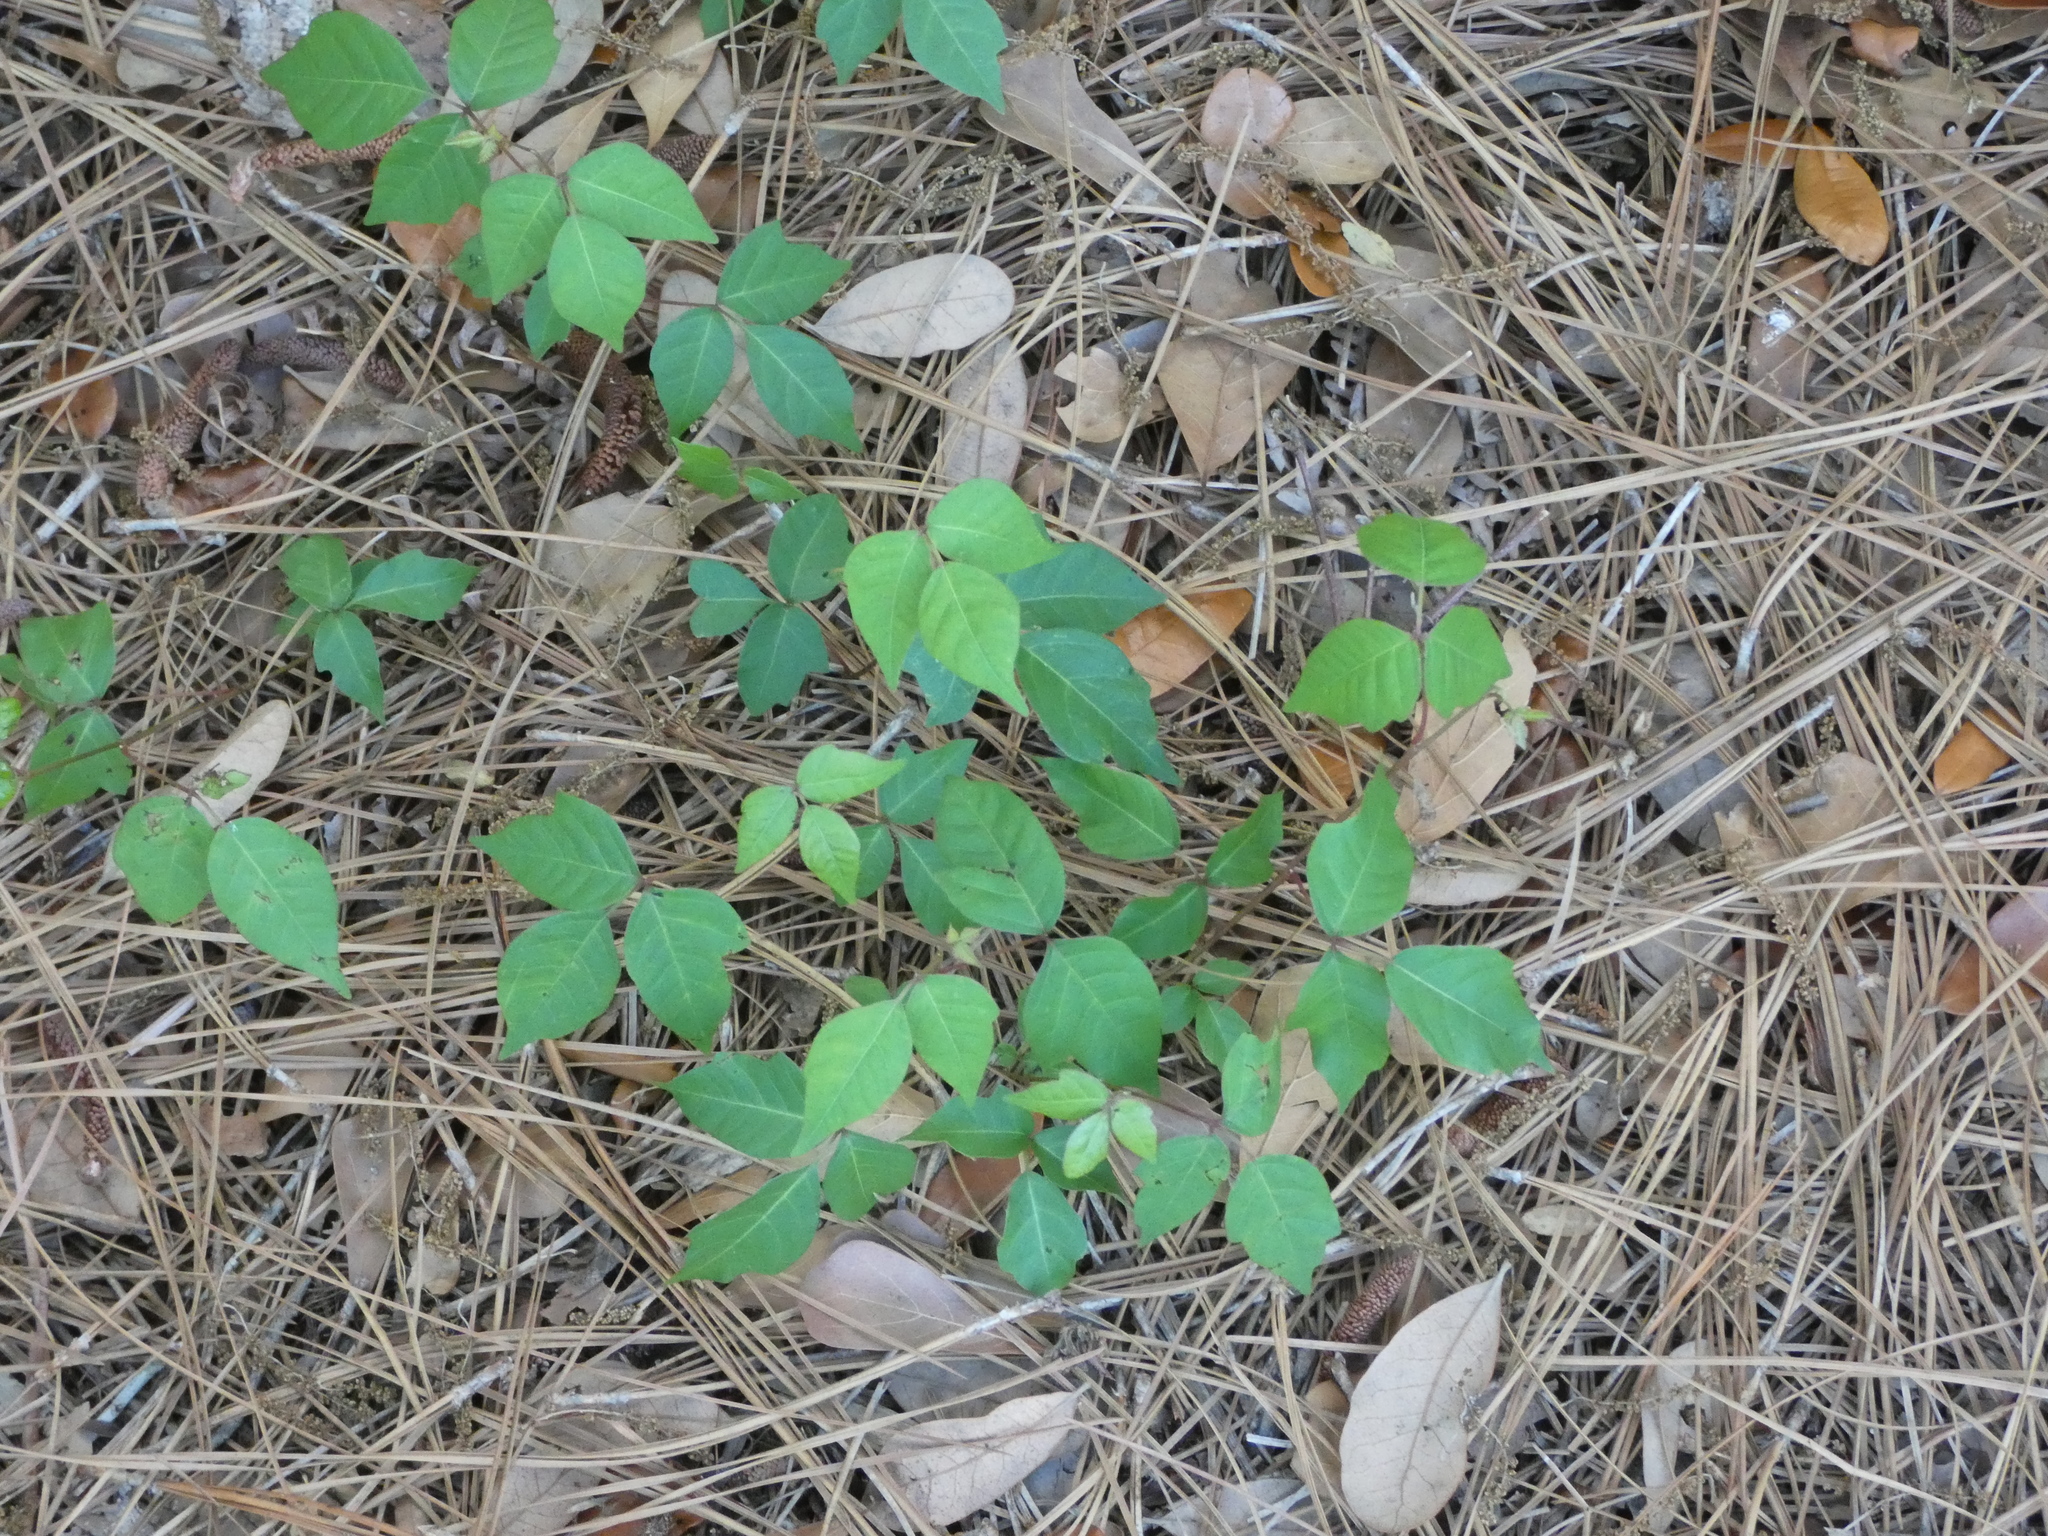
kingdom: Plantae
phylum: Tracheophyta
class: Magnoliopsida
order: Sapindales
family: Anacardiaceae
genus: Toxicodendron
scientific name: Toxicodendron radicans
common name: Poison ivy
